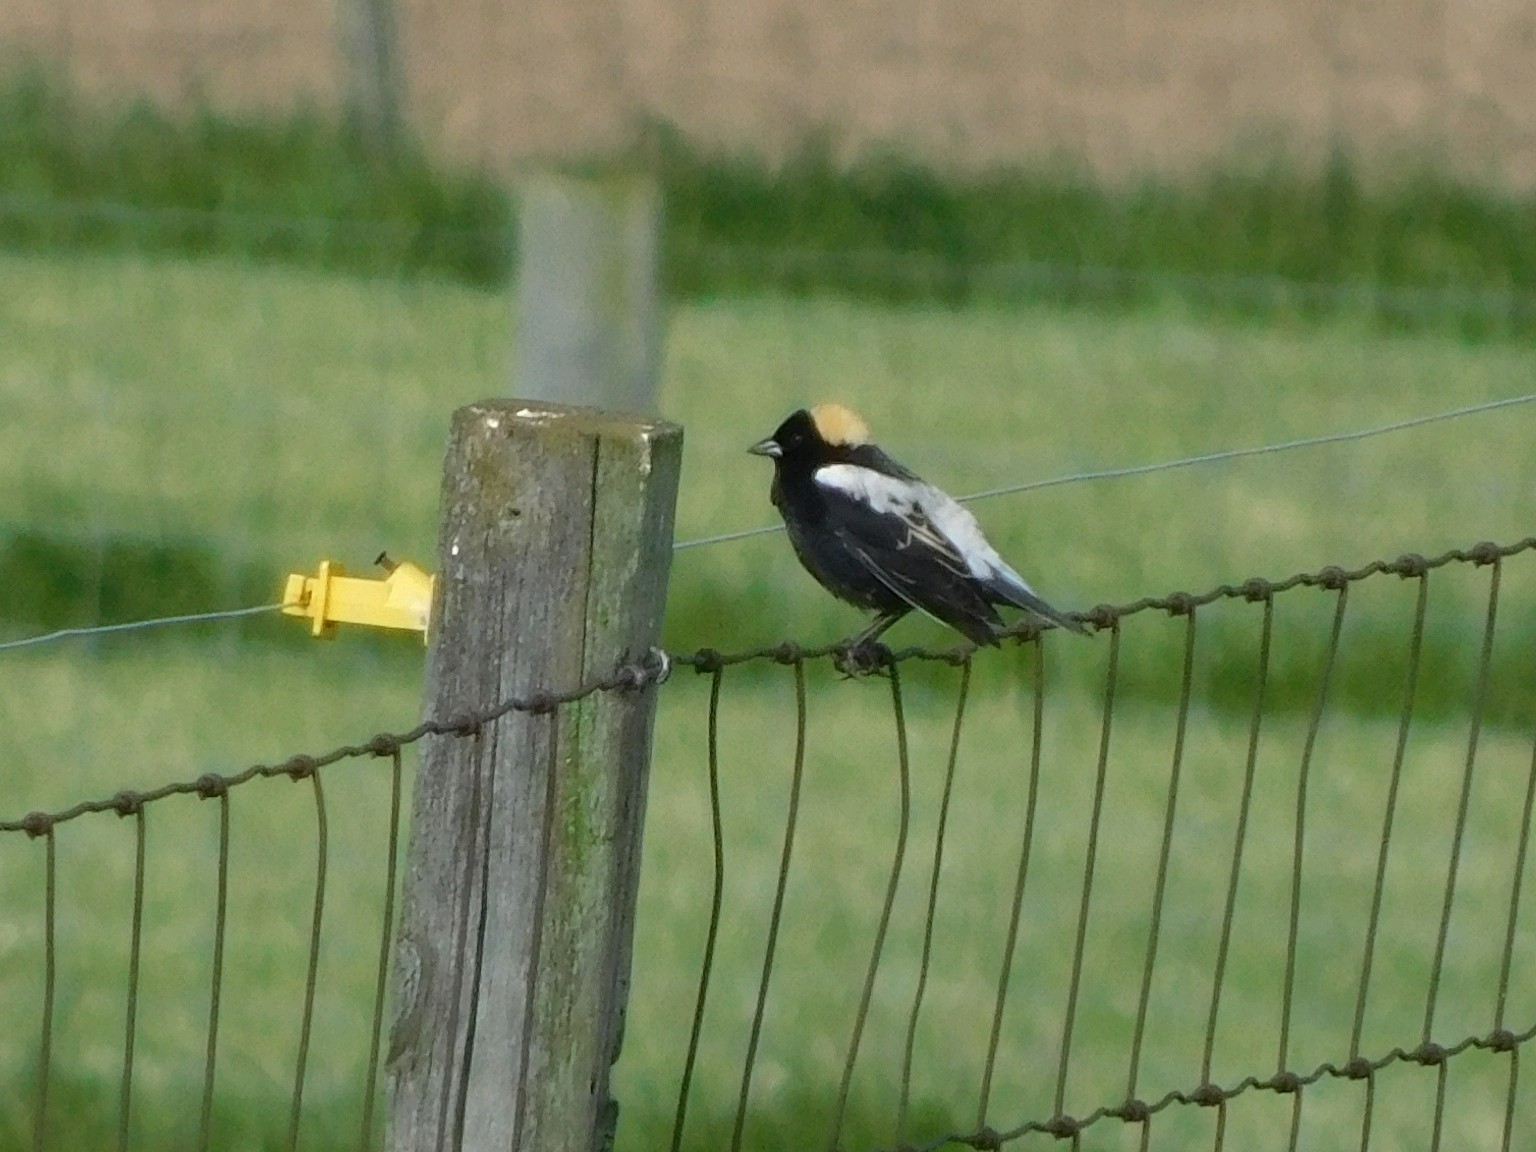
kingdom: Animalia
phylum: Chordata
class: Aves
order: Passeriformes
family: Icteridae
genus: Dolichonyx
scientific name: Dolichonyx oryzivorus
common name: Bobolink
